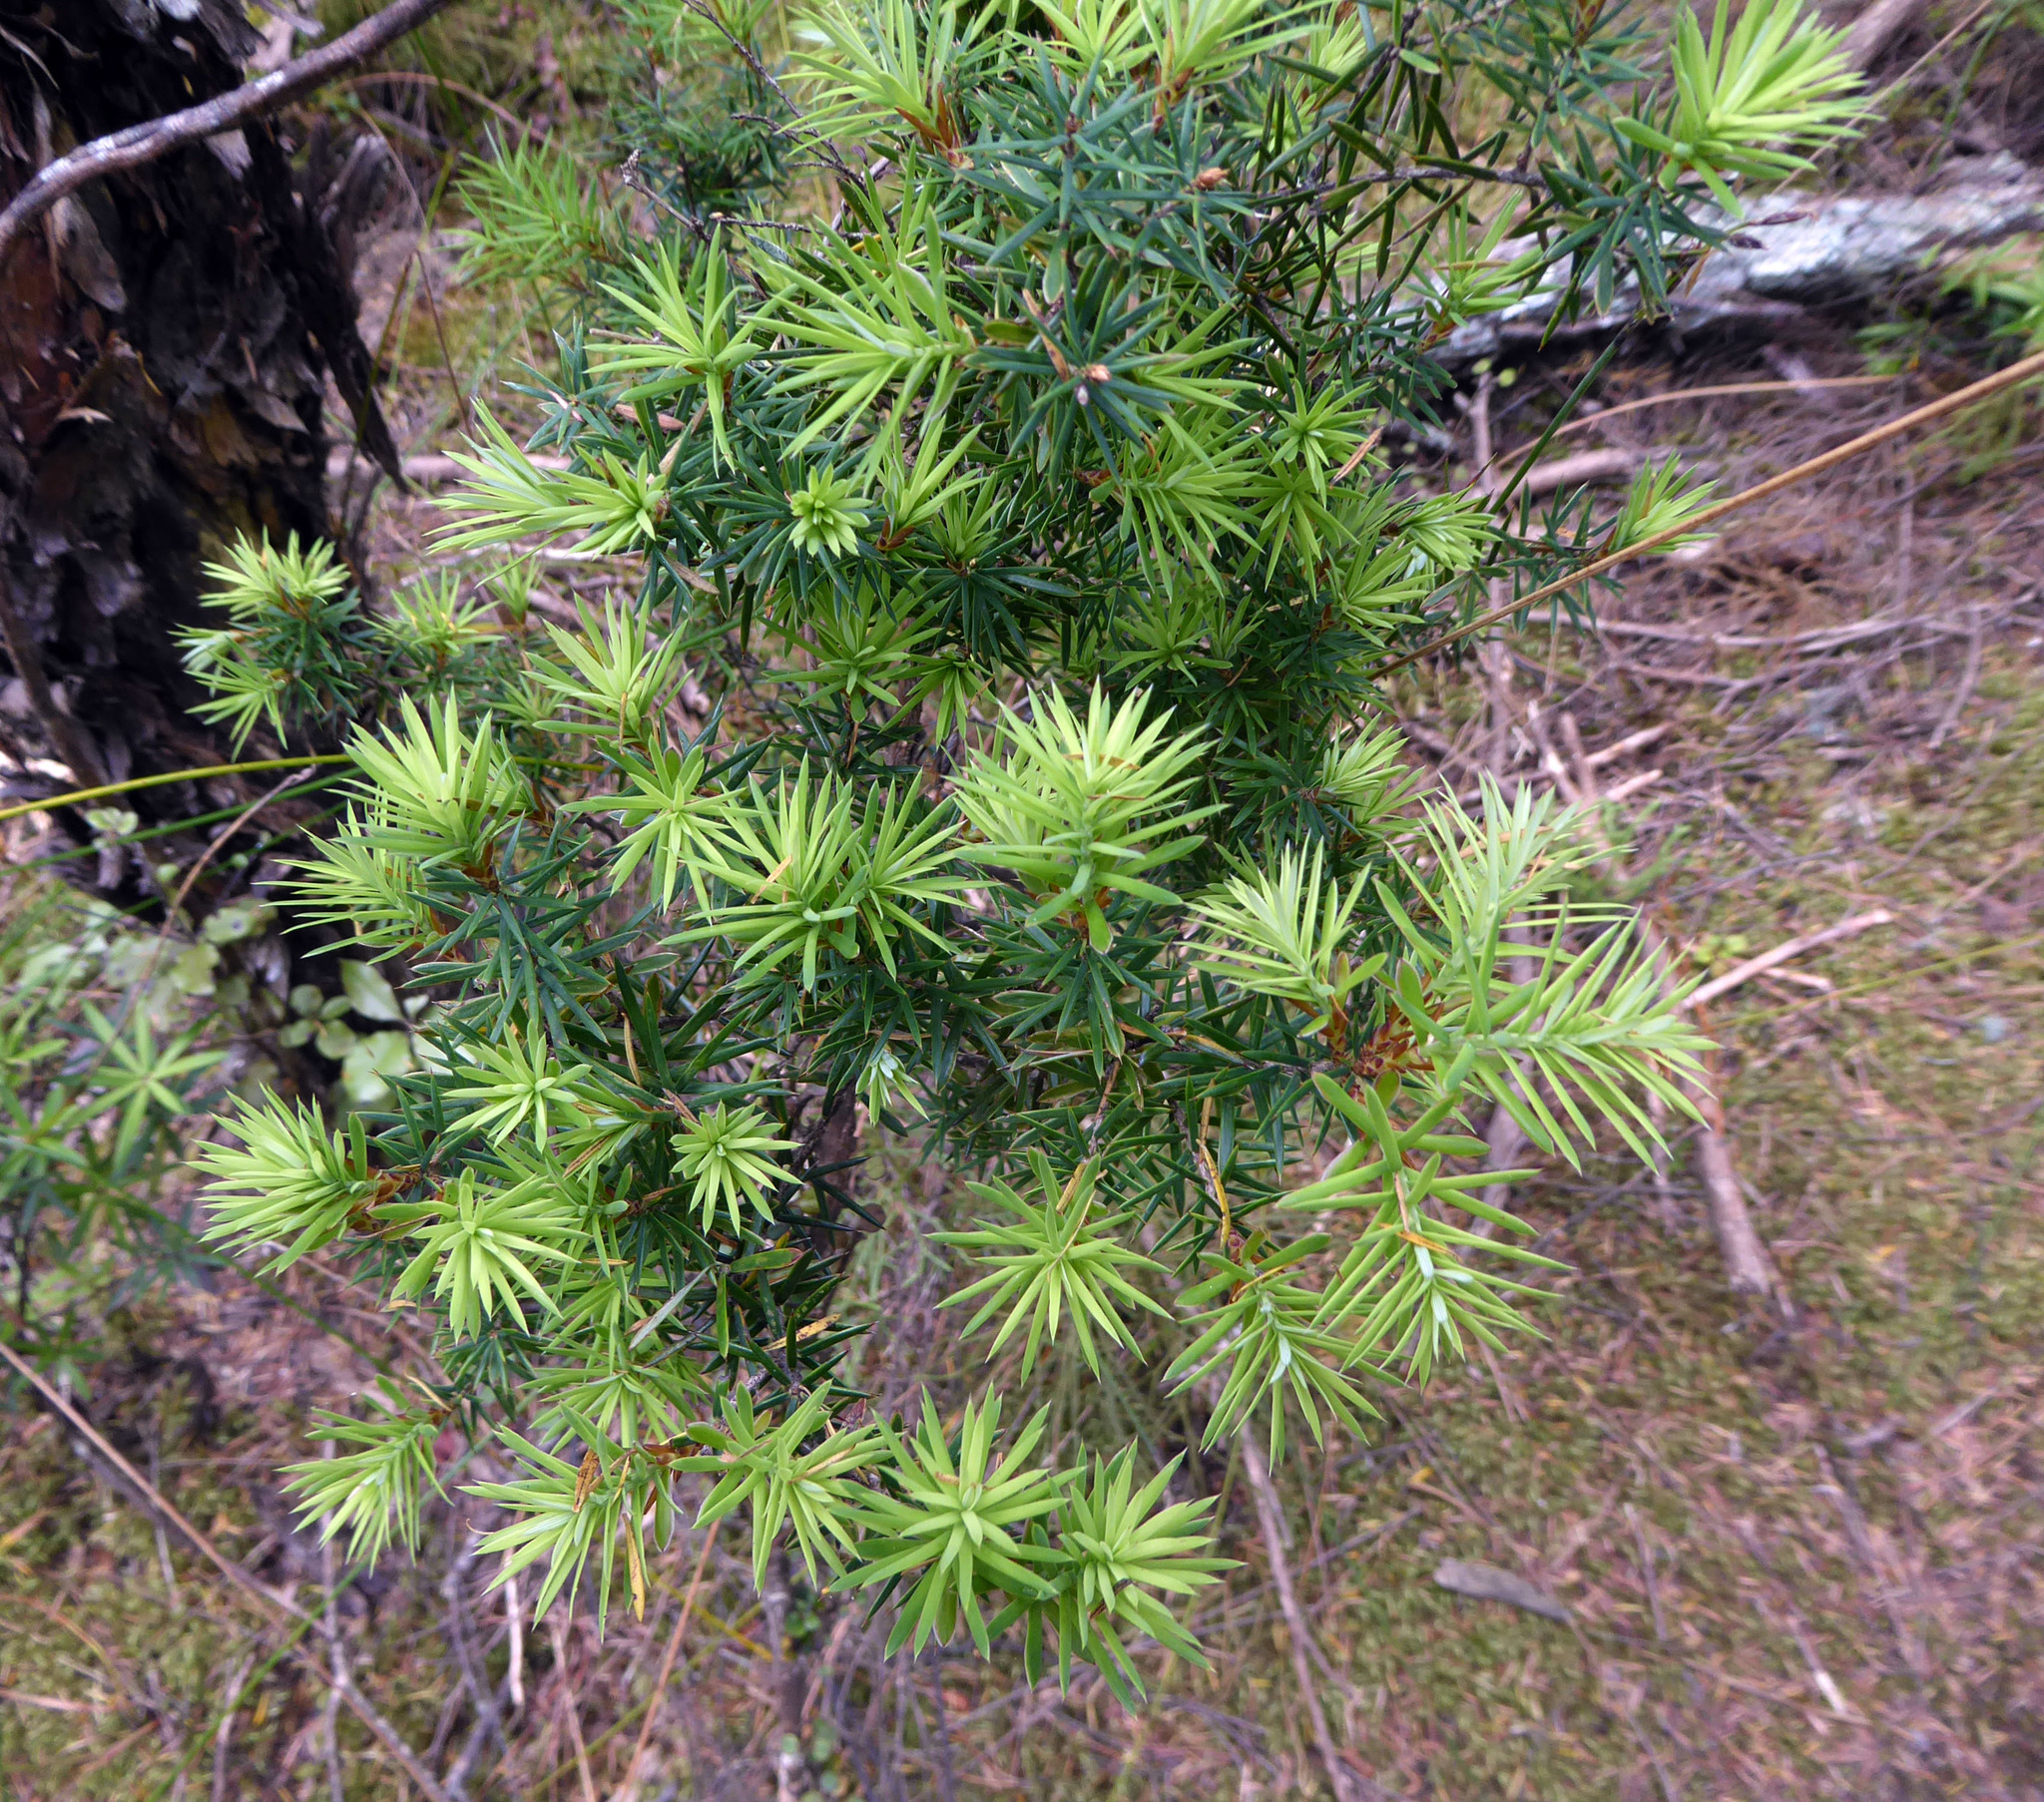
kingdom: Plantae
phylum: Tracheophyta
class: Magnoliopsida
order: Ericales
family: Ericaceae
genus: Leptecophylla
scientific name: Leptecophylla juniperina
